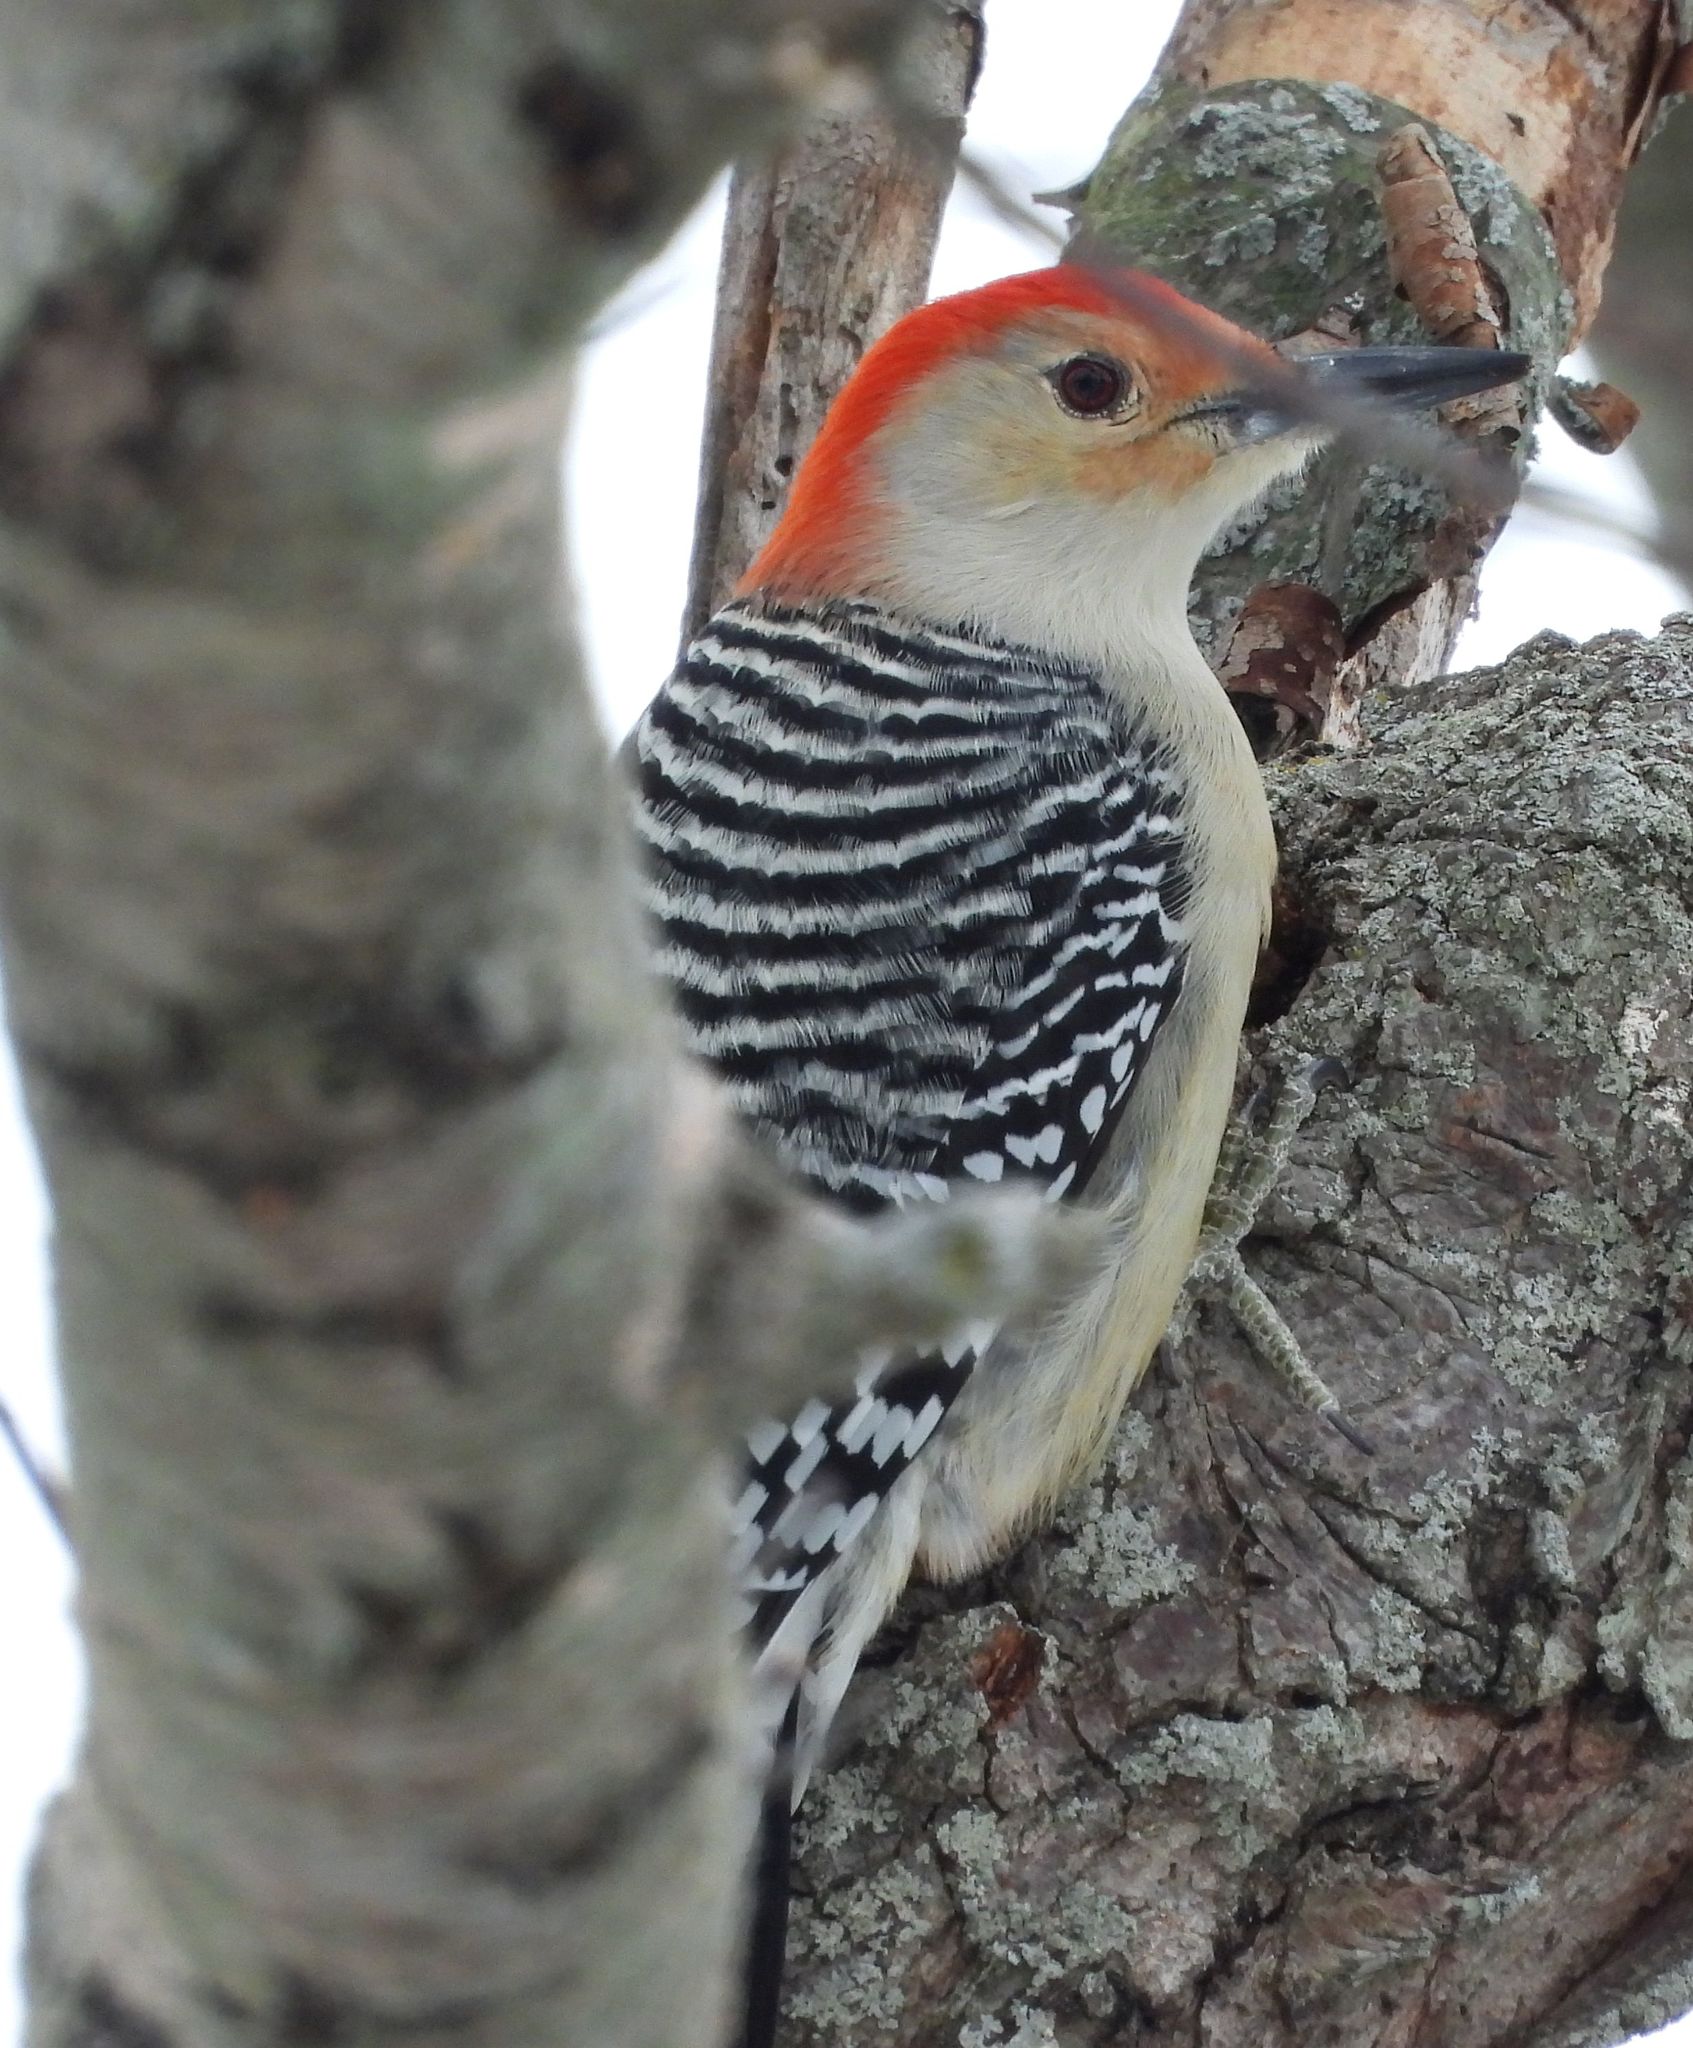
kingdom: Animalia
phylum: Chordata
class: Aves
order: Piciformes
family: Picidae
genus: Melanerpes
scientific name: Melanerpes carolinus
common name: Red-bellied woodpecker
